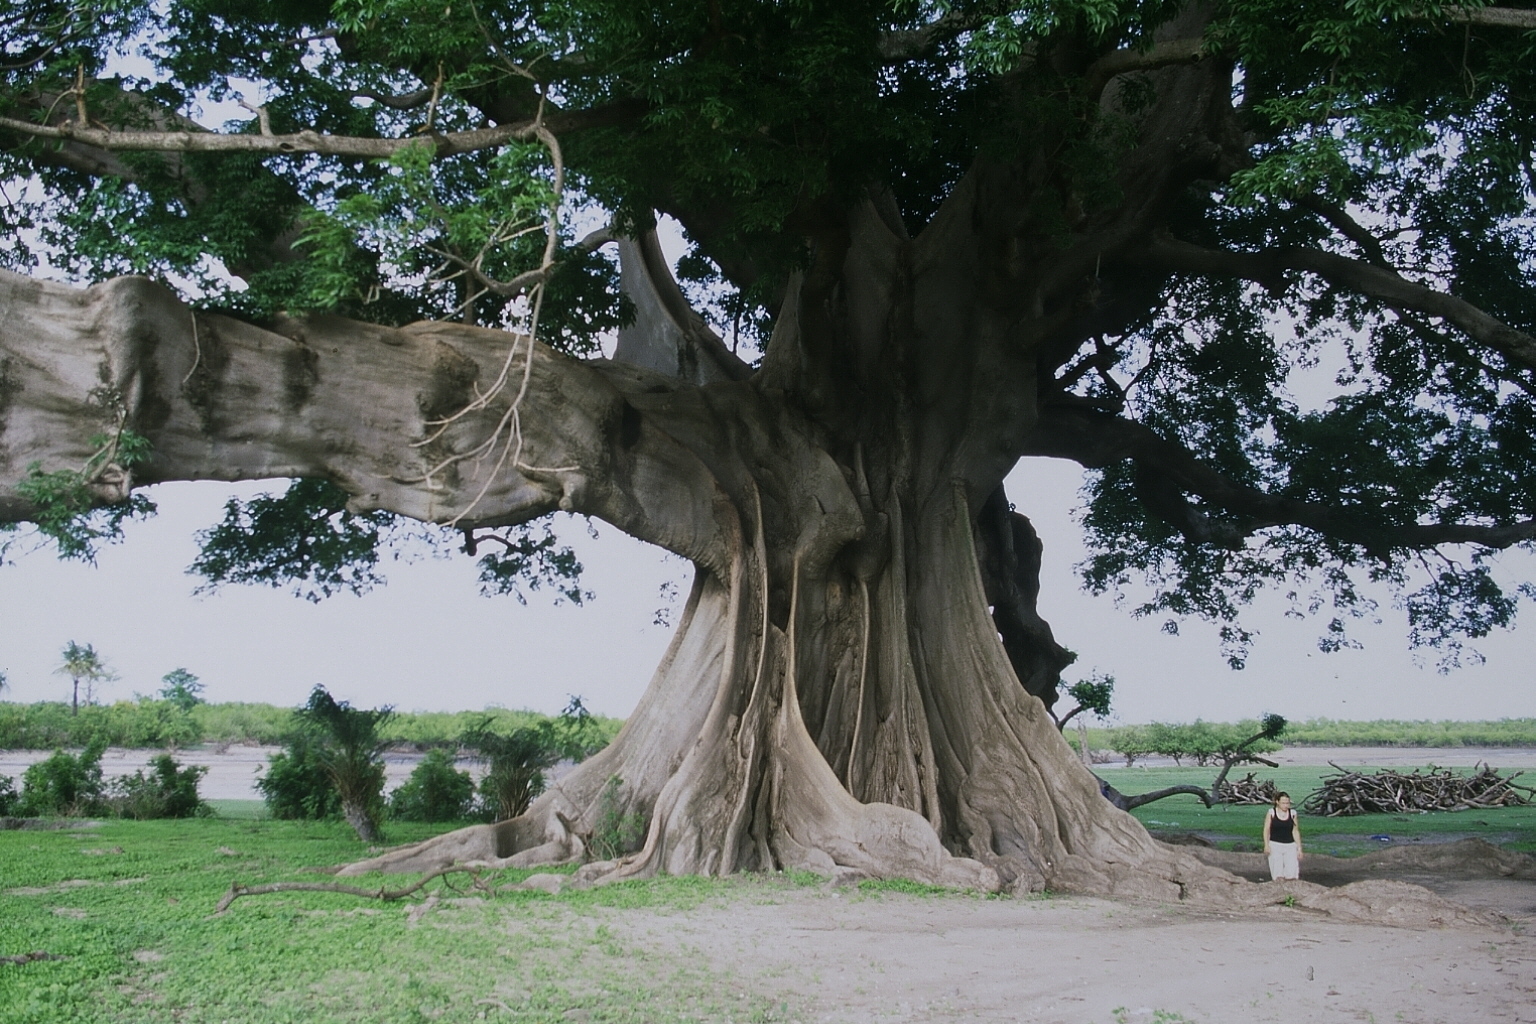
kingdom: Plantae
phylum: Tracheophyta
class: Magnoliopsida
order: Malvales
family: Malvaceae
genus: Ceiba
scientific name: Ceiba pentandra
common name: Kapok
